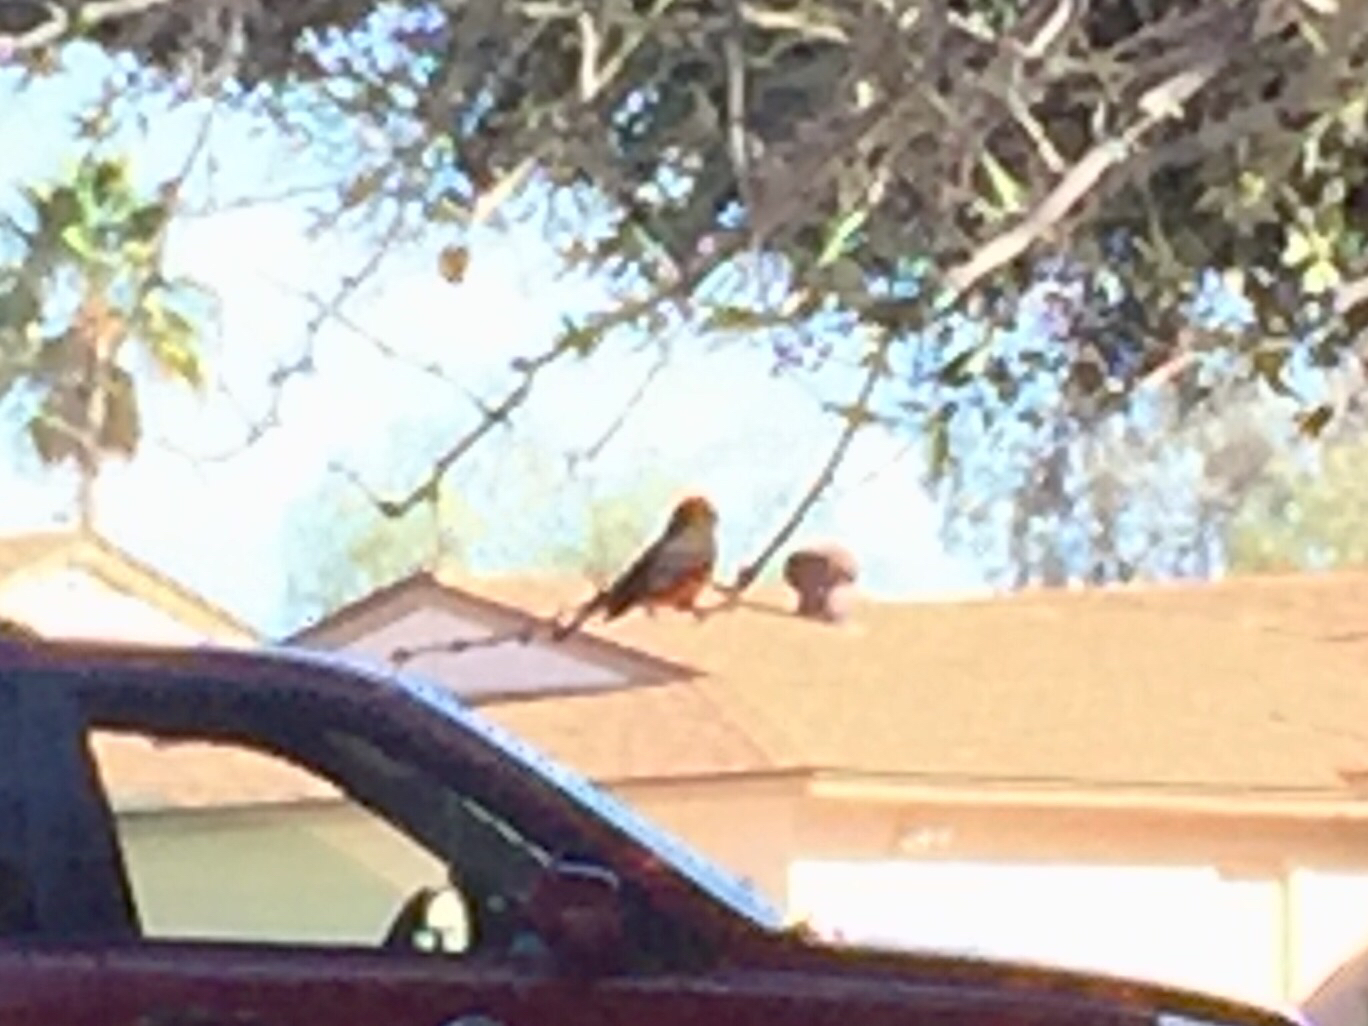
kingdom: Animalia
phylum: Chordata
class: Aves
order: Passeriformes
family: Tyrannidae
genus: Pyrocephalus
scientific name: Pyrocephalus rubinus
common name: Vermilion flycatcher
